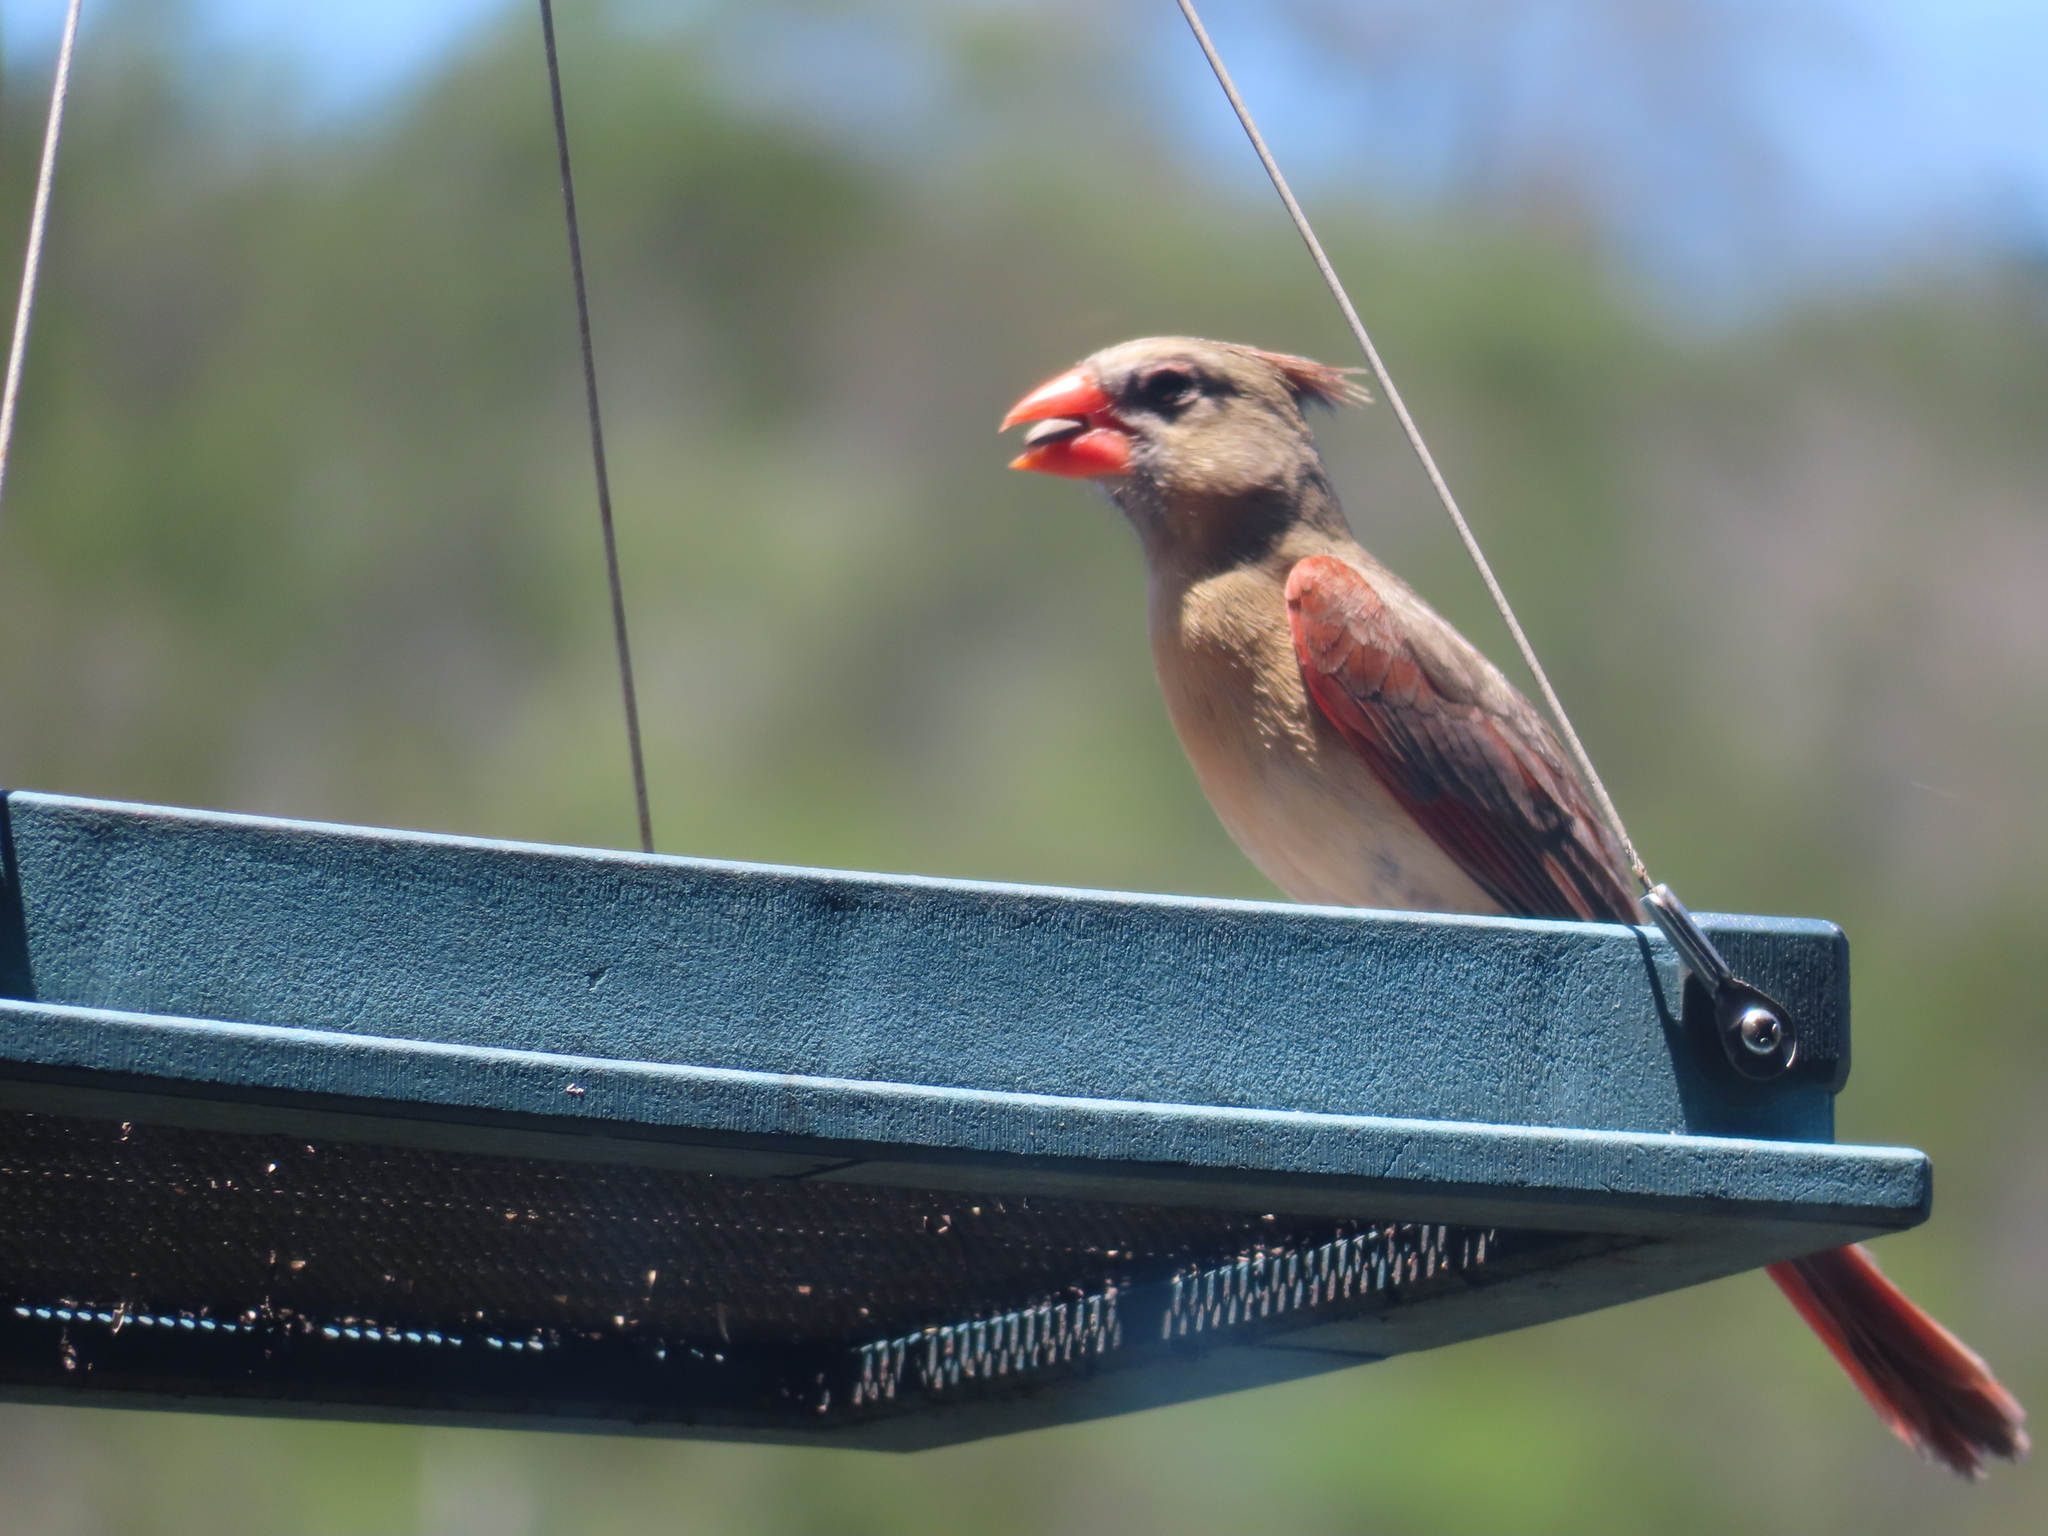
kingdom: Animalia
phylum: Chordata
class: Aves
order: Passeriformes
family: Cardinalidae
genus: Cardinalis
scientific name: Cardinalis cardinalis
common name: Northern cardinal
